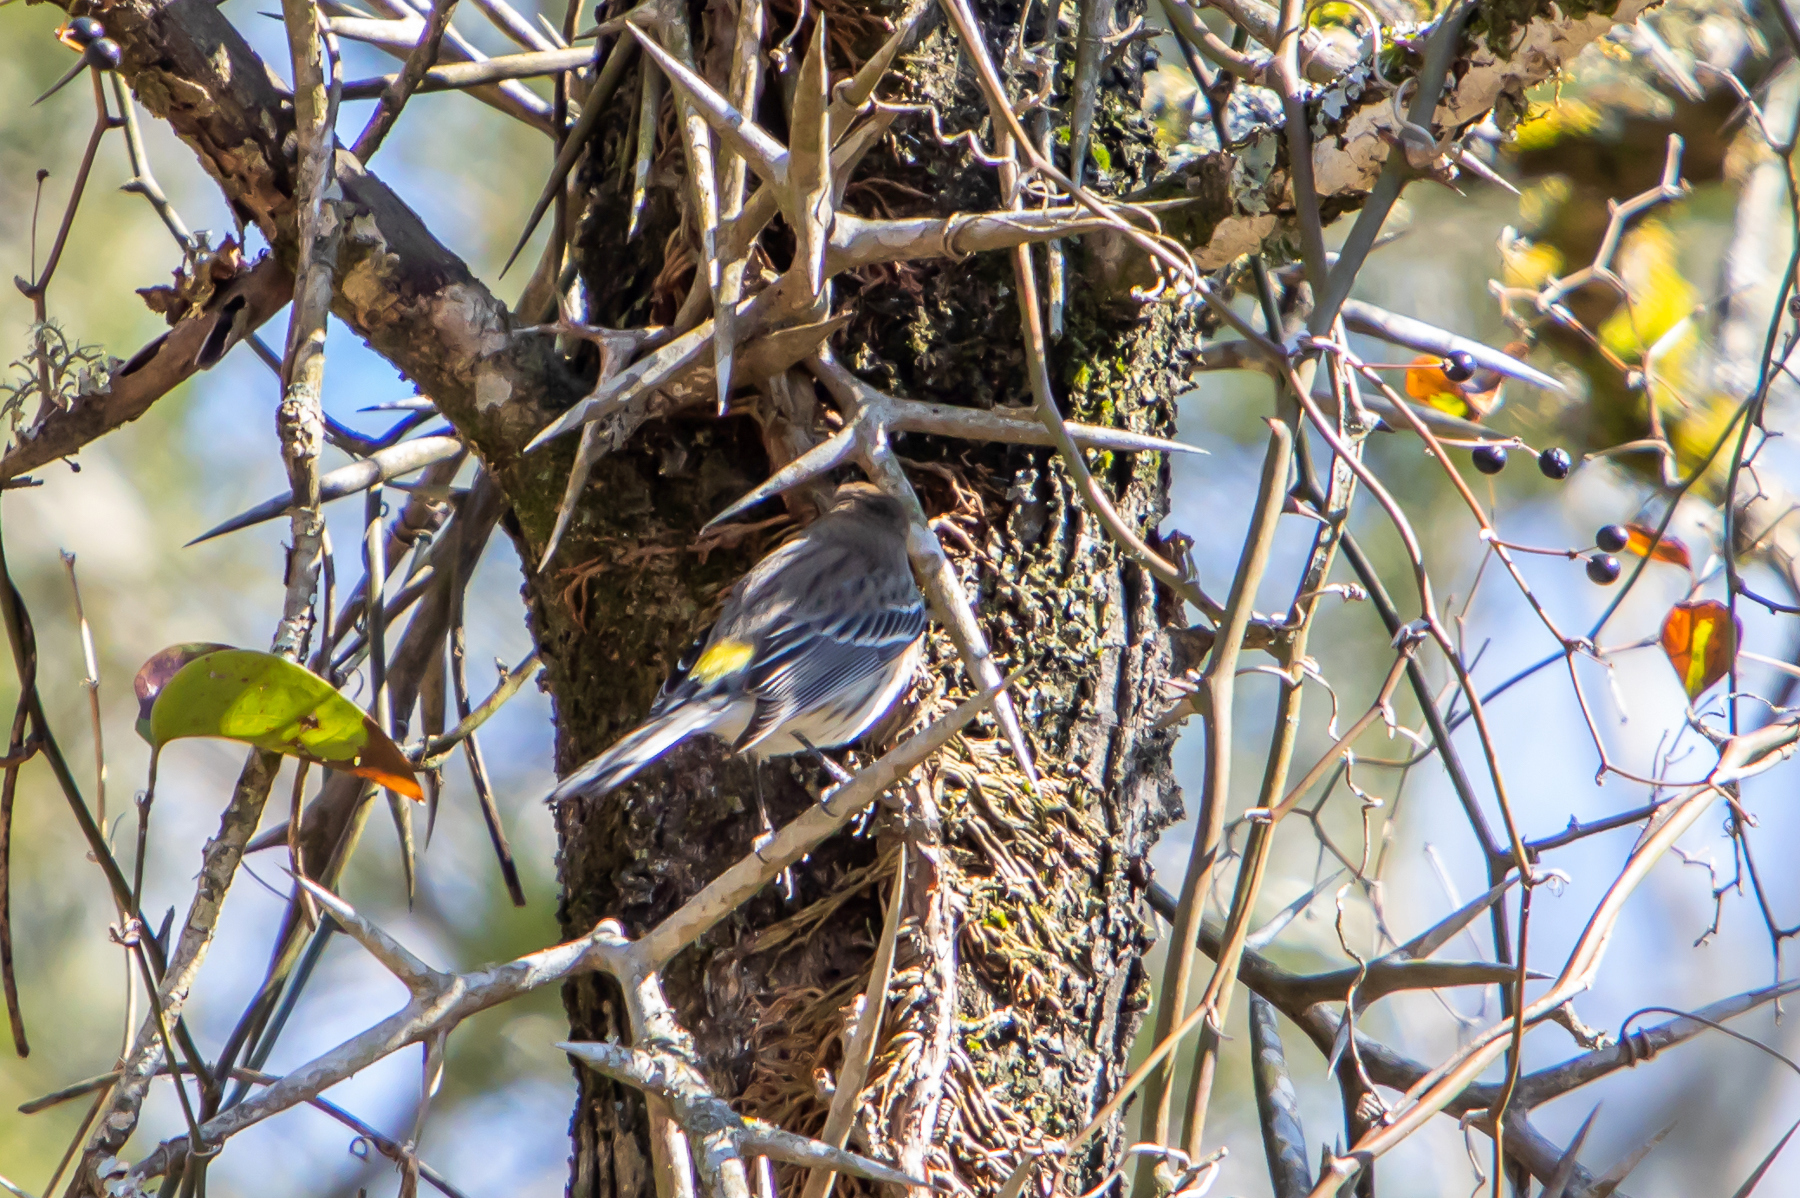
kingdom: Animalia
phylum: Chordata
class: Aves
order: Passeriformes
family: Parulidae
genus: Setophaga
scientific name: Setophaga coronata
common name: Myrtle warbler
